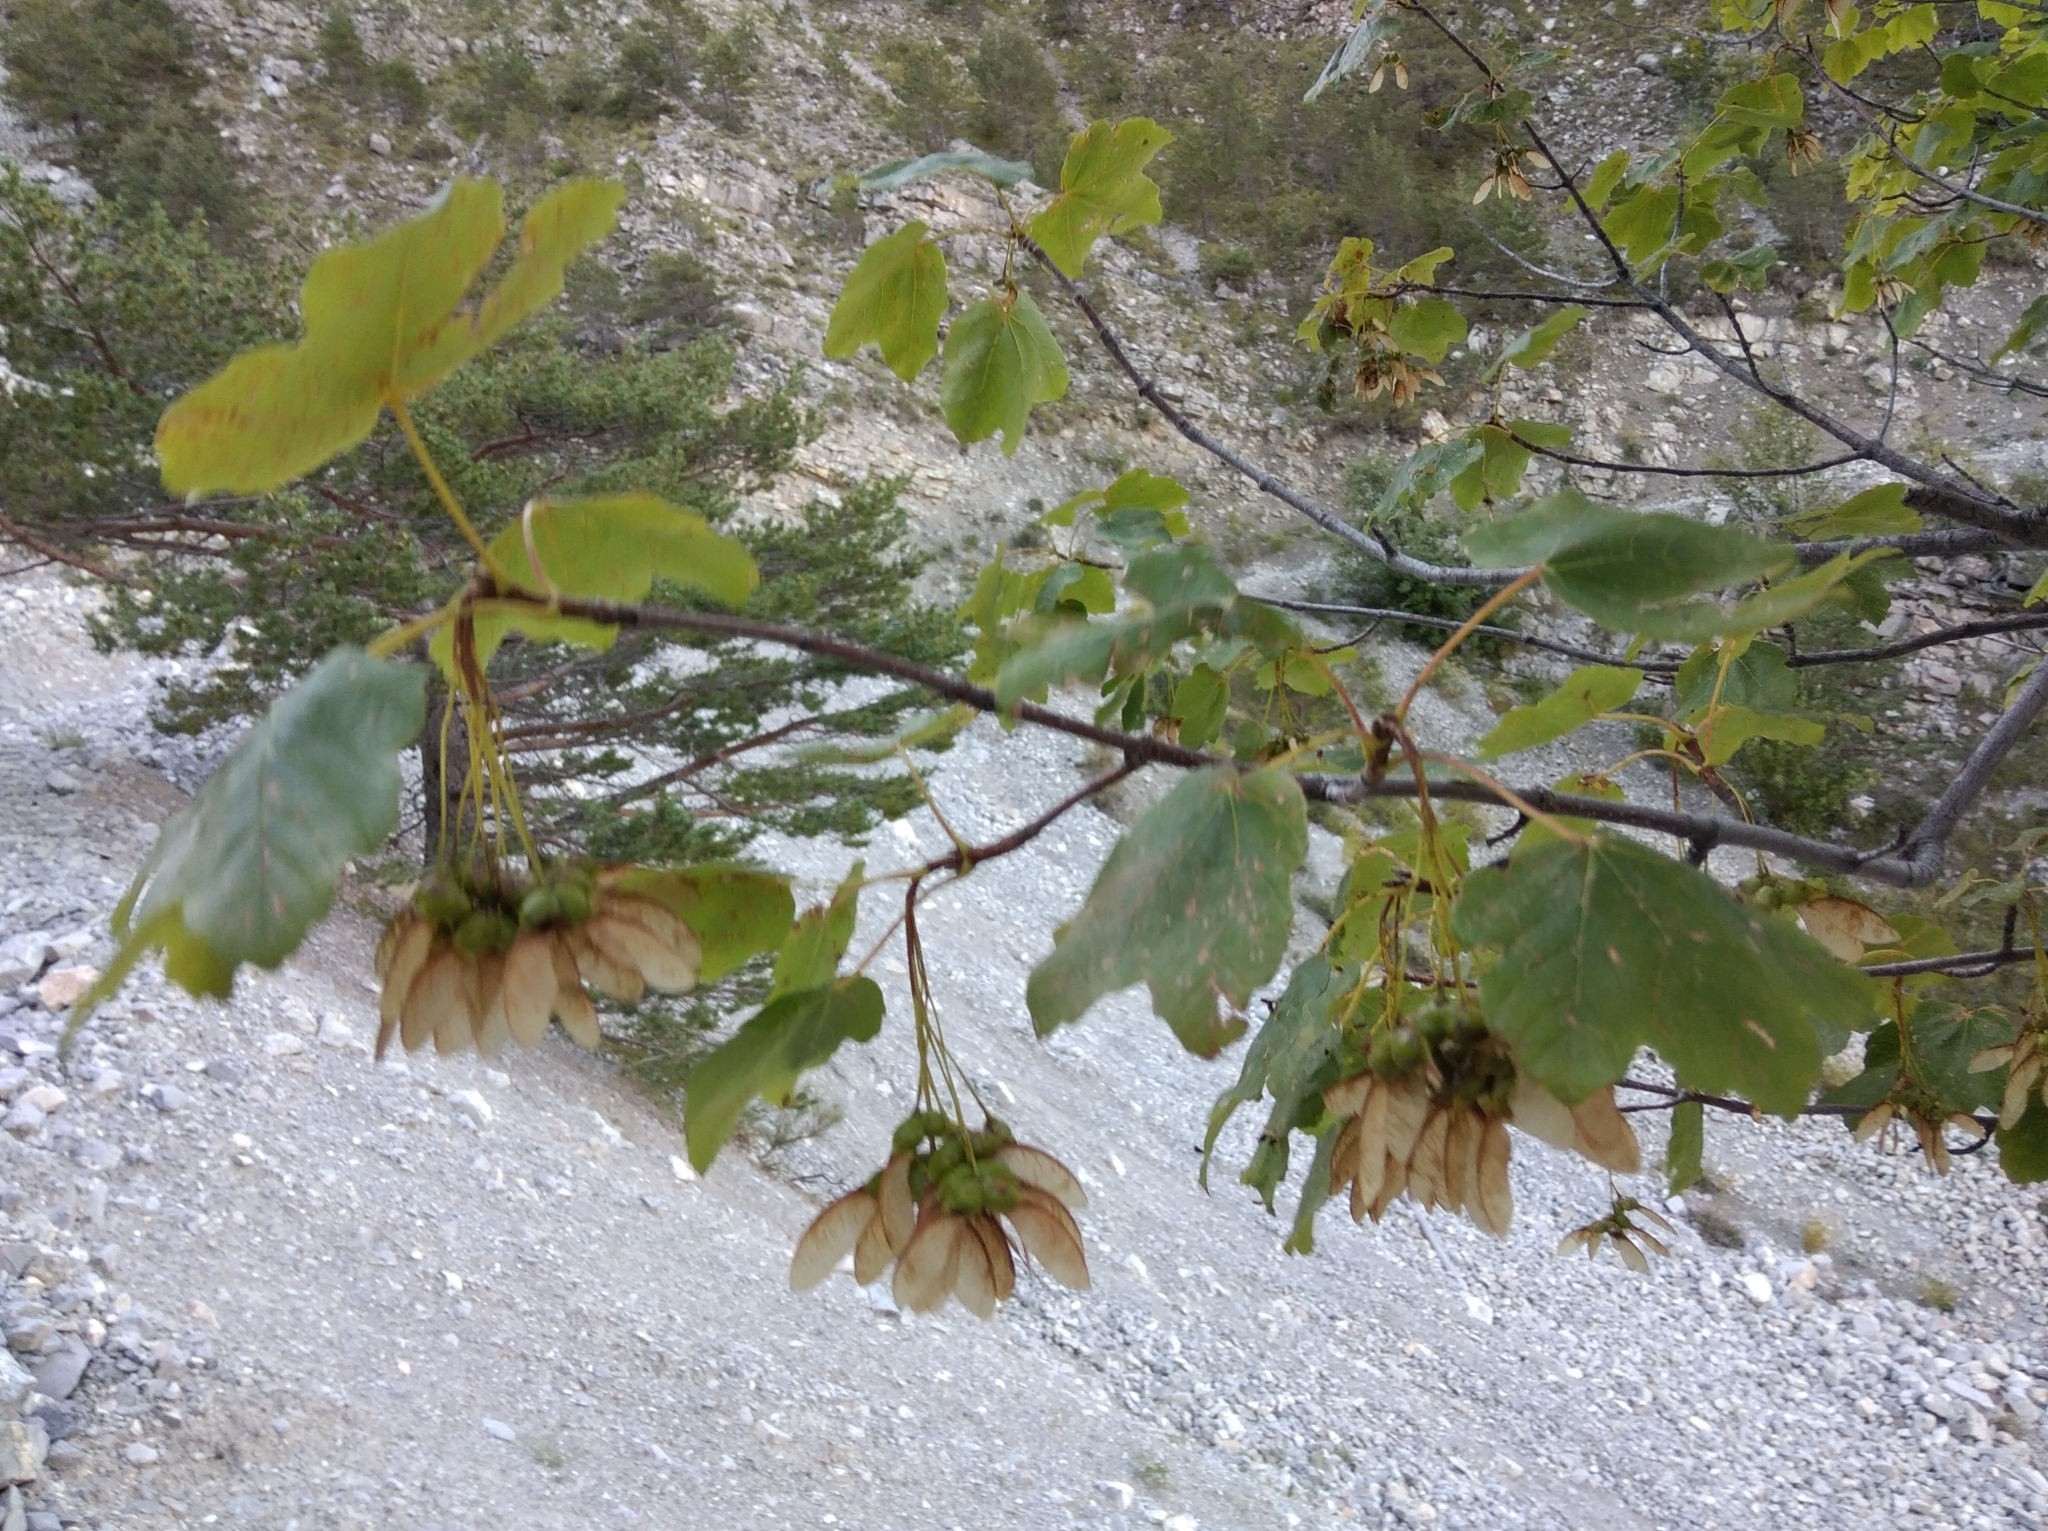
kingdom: Plantae
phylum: Tracheophyta
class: Magnoliopsida
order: Sapindales
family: Sapindaceae
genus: Acer
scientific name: Acer campestre
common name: Field maple
